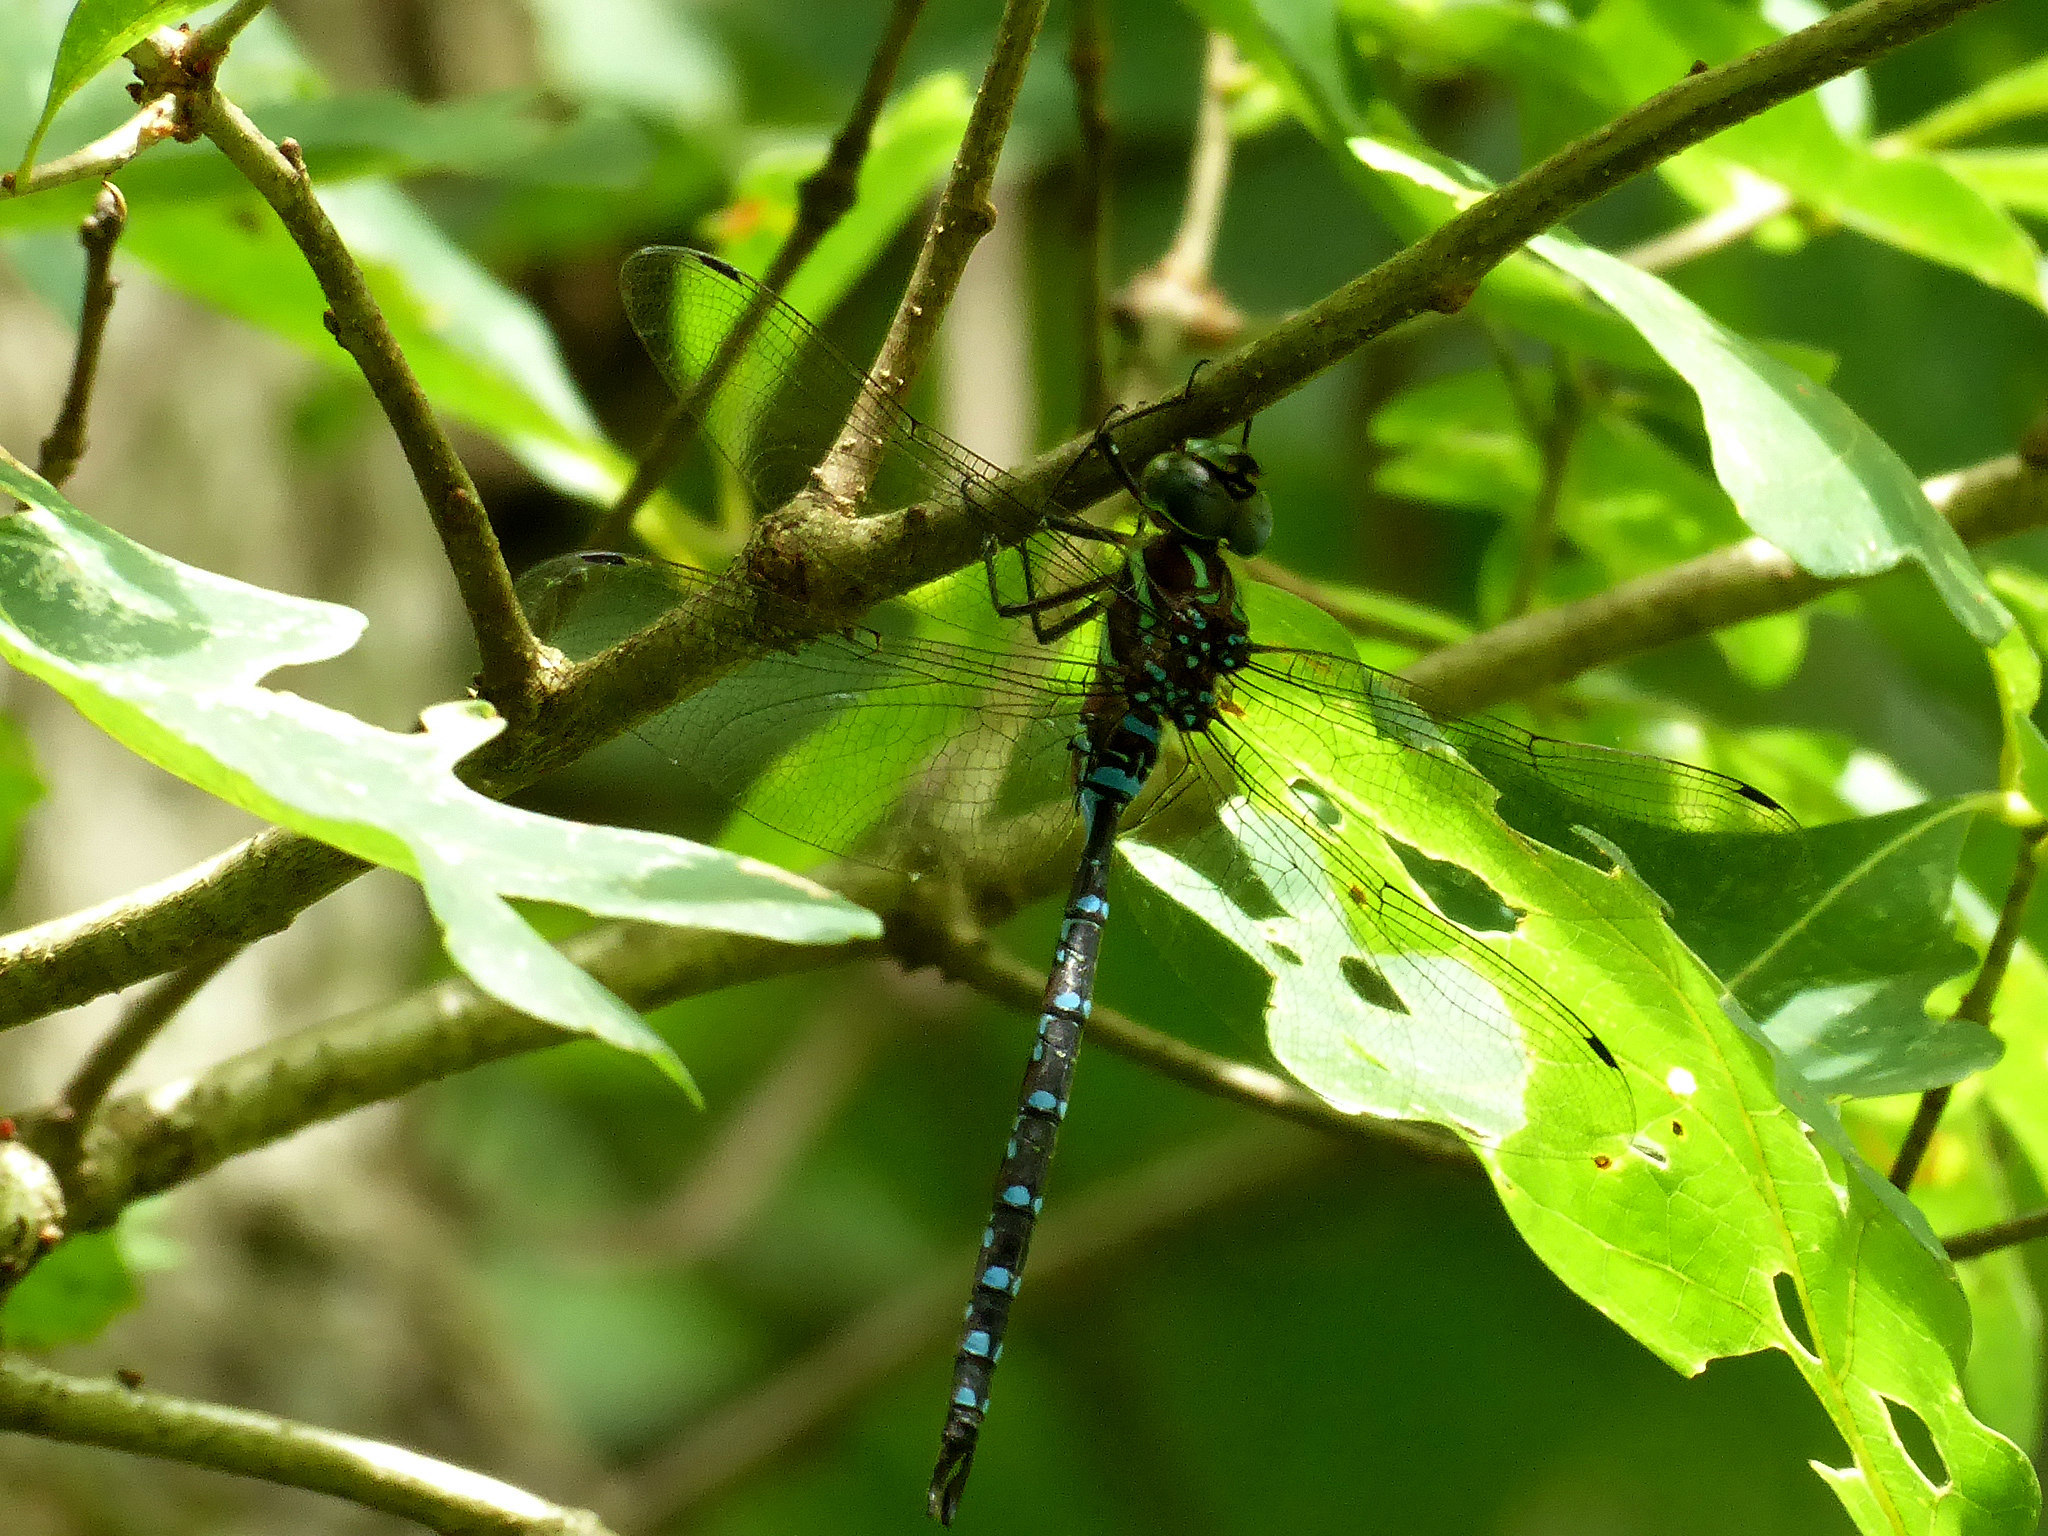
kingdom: Animalia
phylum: Arthropoda
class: Insecta
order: Odonata
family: Aeshnidae
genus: Aeshna
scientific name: Aeshna tuberculifera
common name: Aeschne à tubercules
